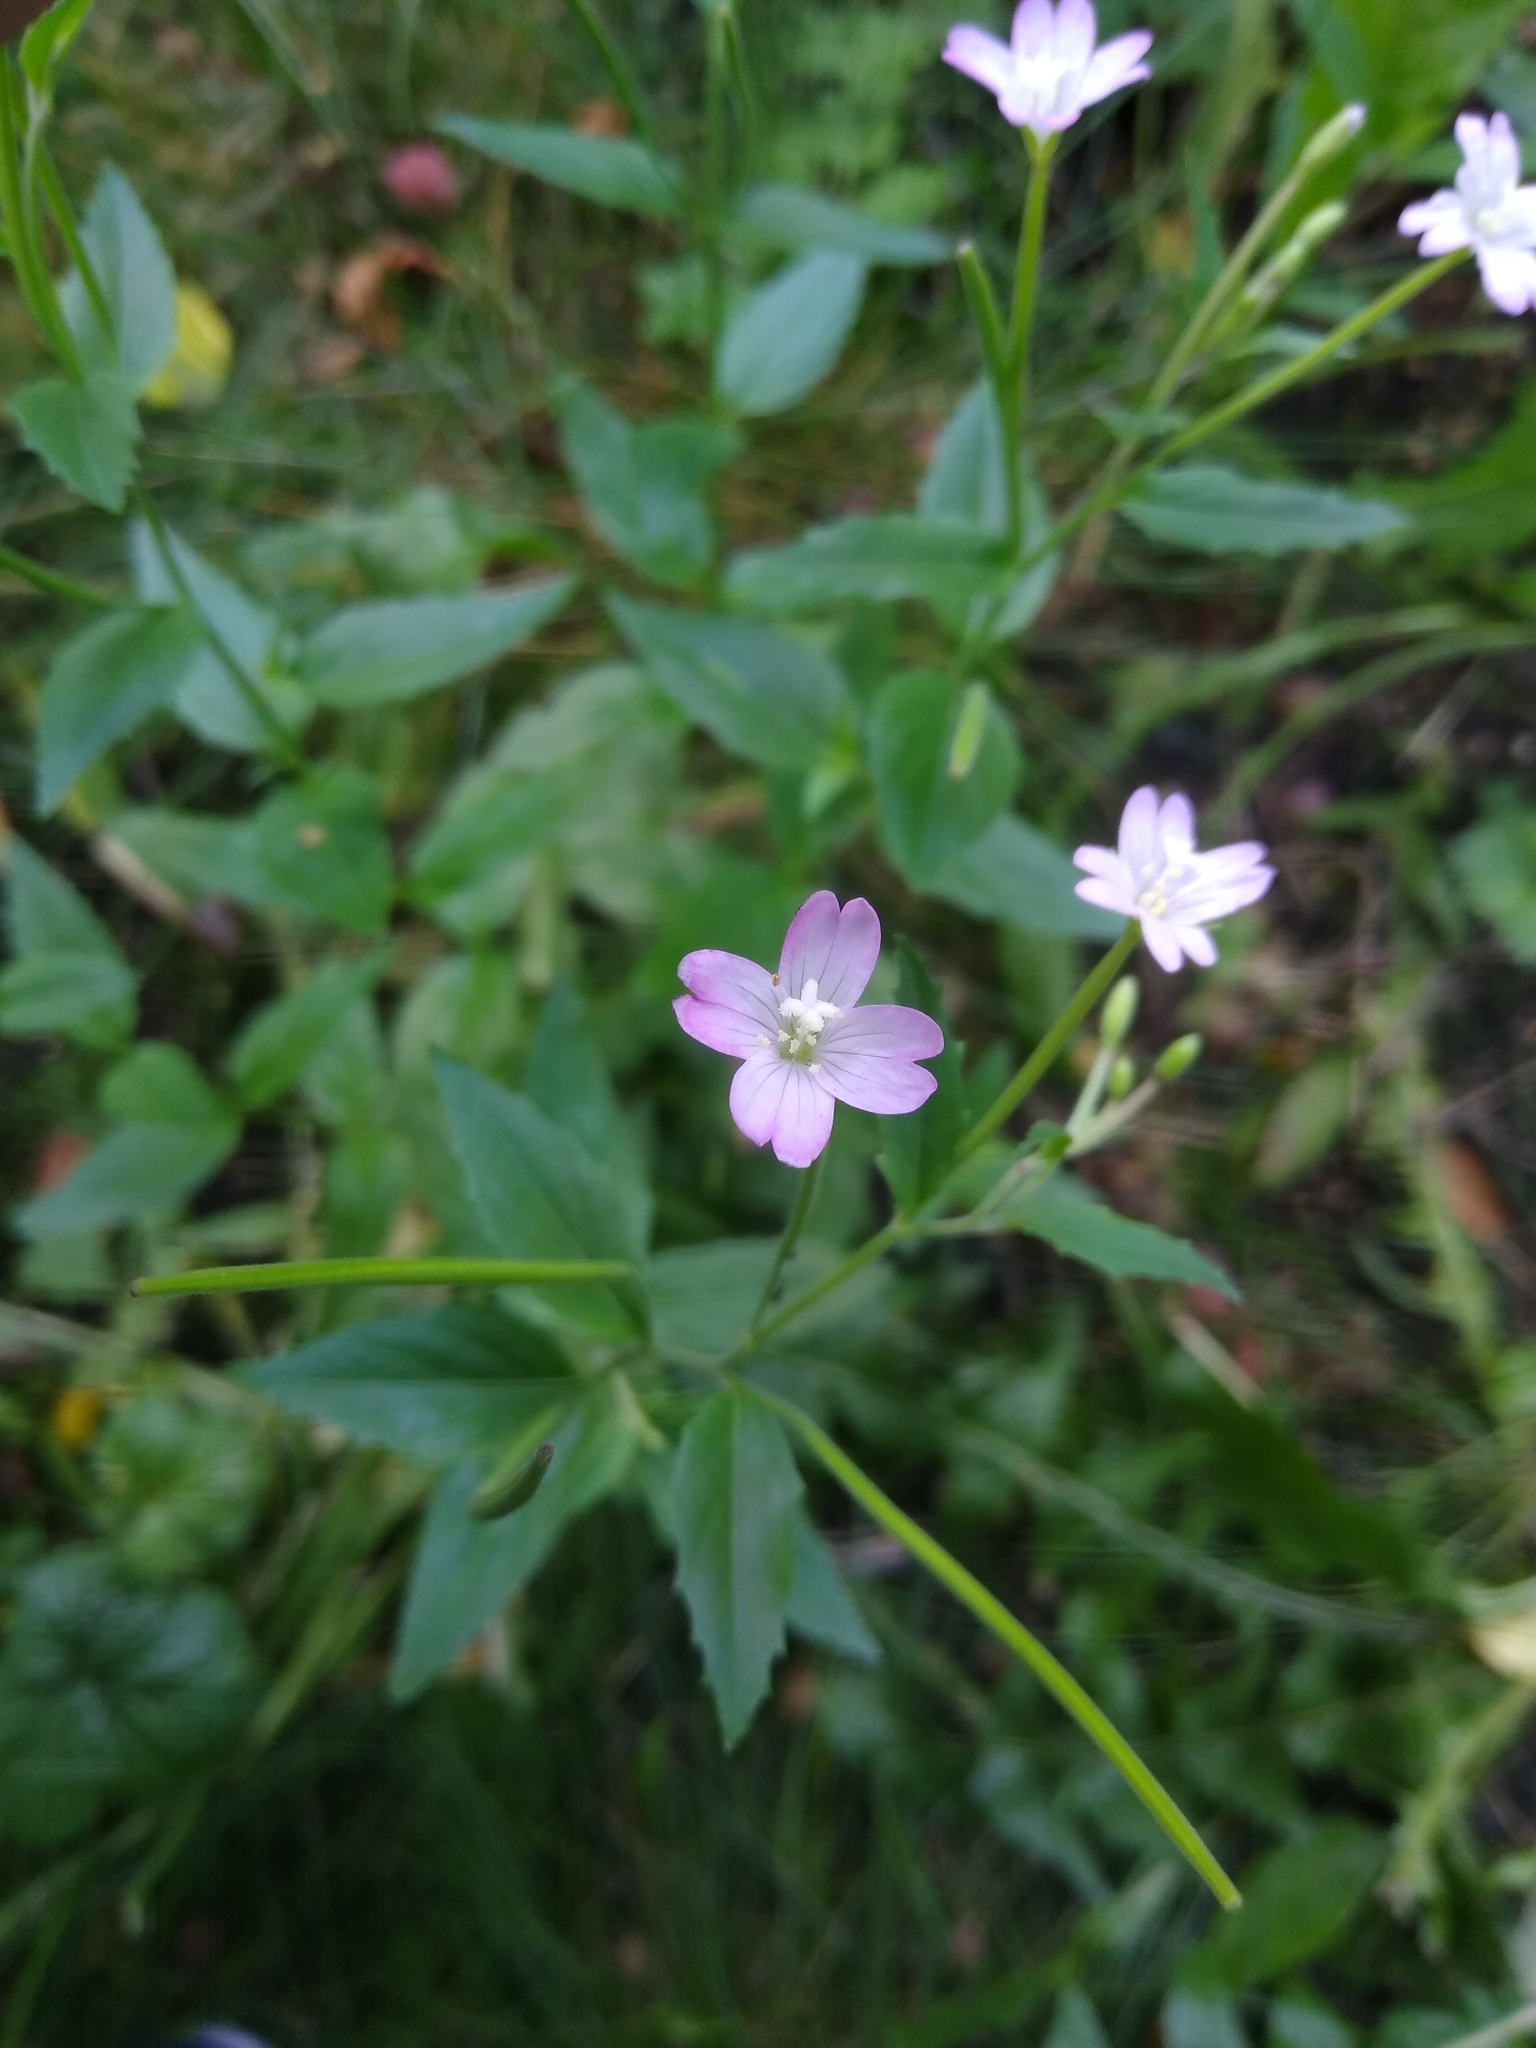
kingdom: Plantae
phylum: Tracheophyta
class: Magnoliopsida
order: Myrtales
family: Onagraceae
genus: Epilobium
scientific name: Epilobium montanum
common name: Broad-leaved willowherb
